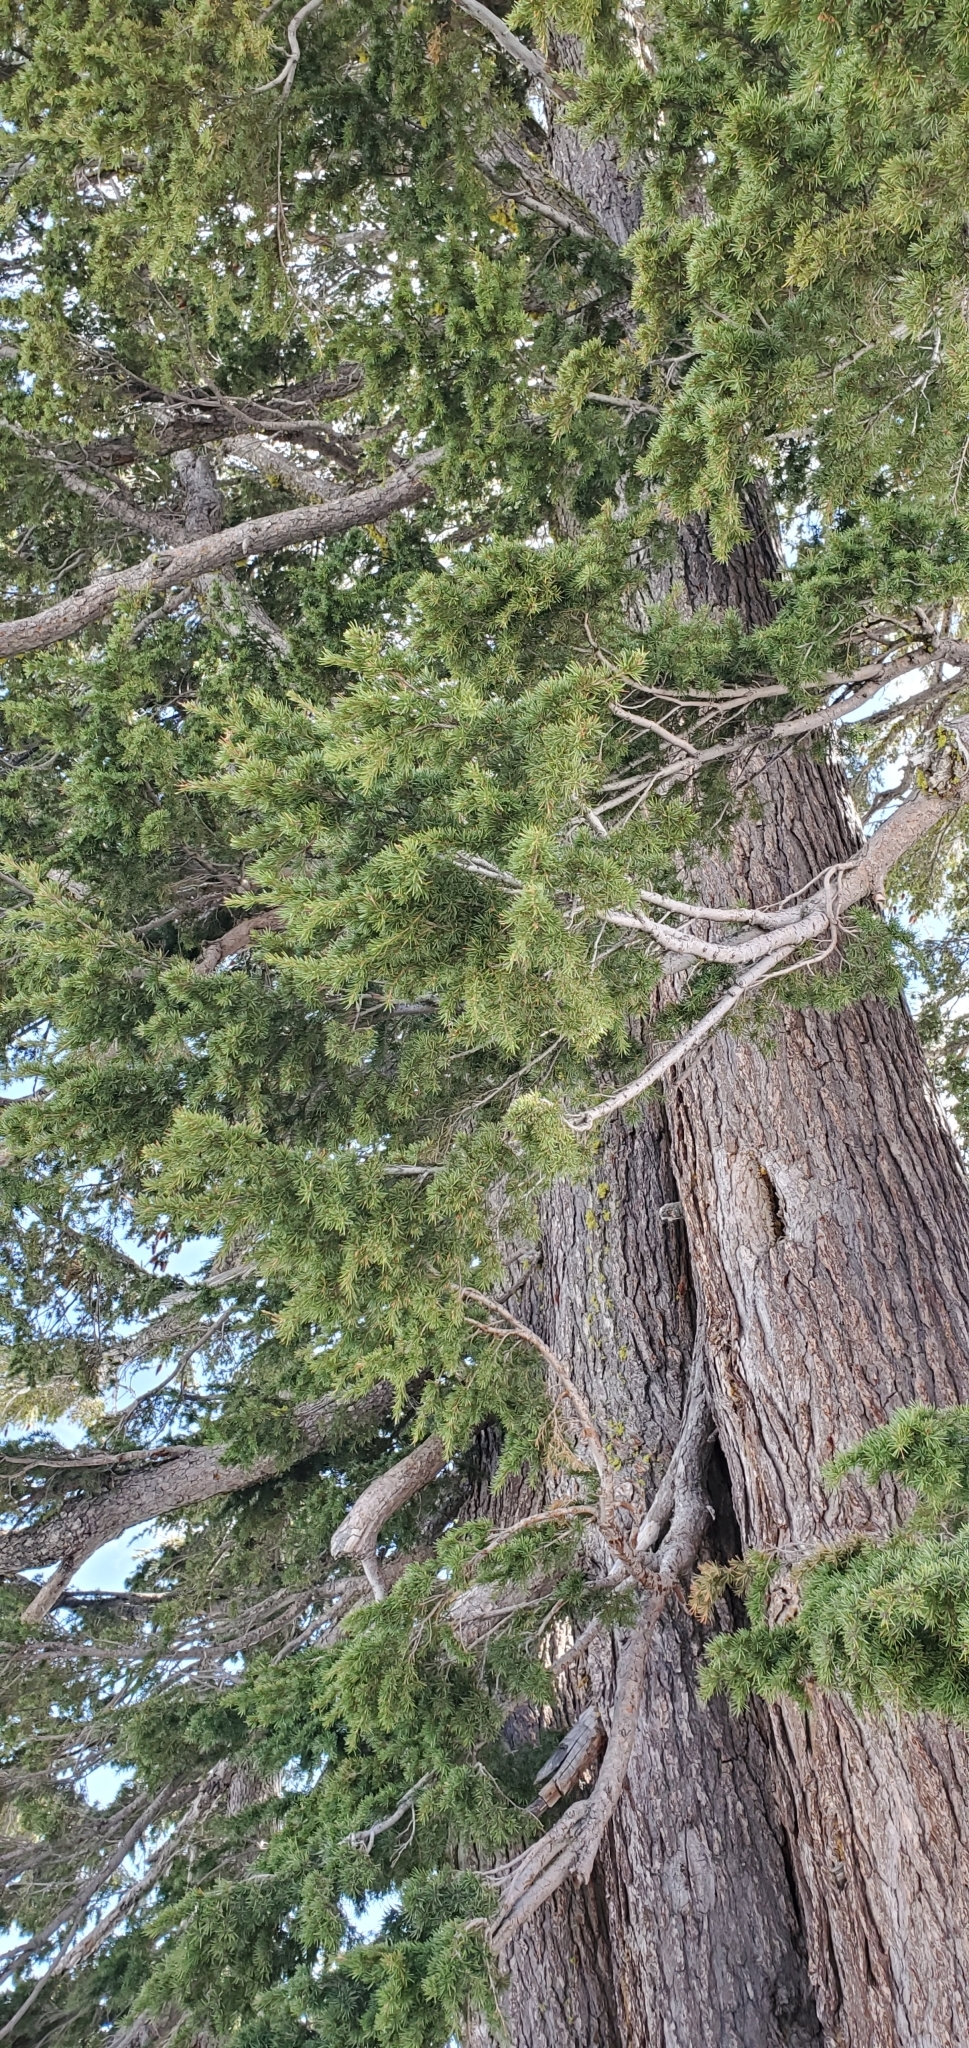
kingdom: Plantae
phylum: Tracheophyta
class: Pinopsida
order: Pinales
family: Pinaceae
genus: Tsuga
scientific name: Tsuga mertensiana
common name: Mountain hemlock
